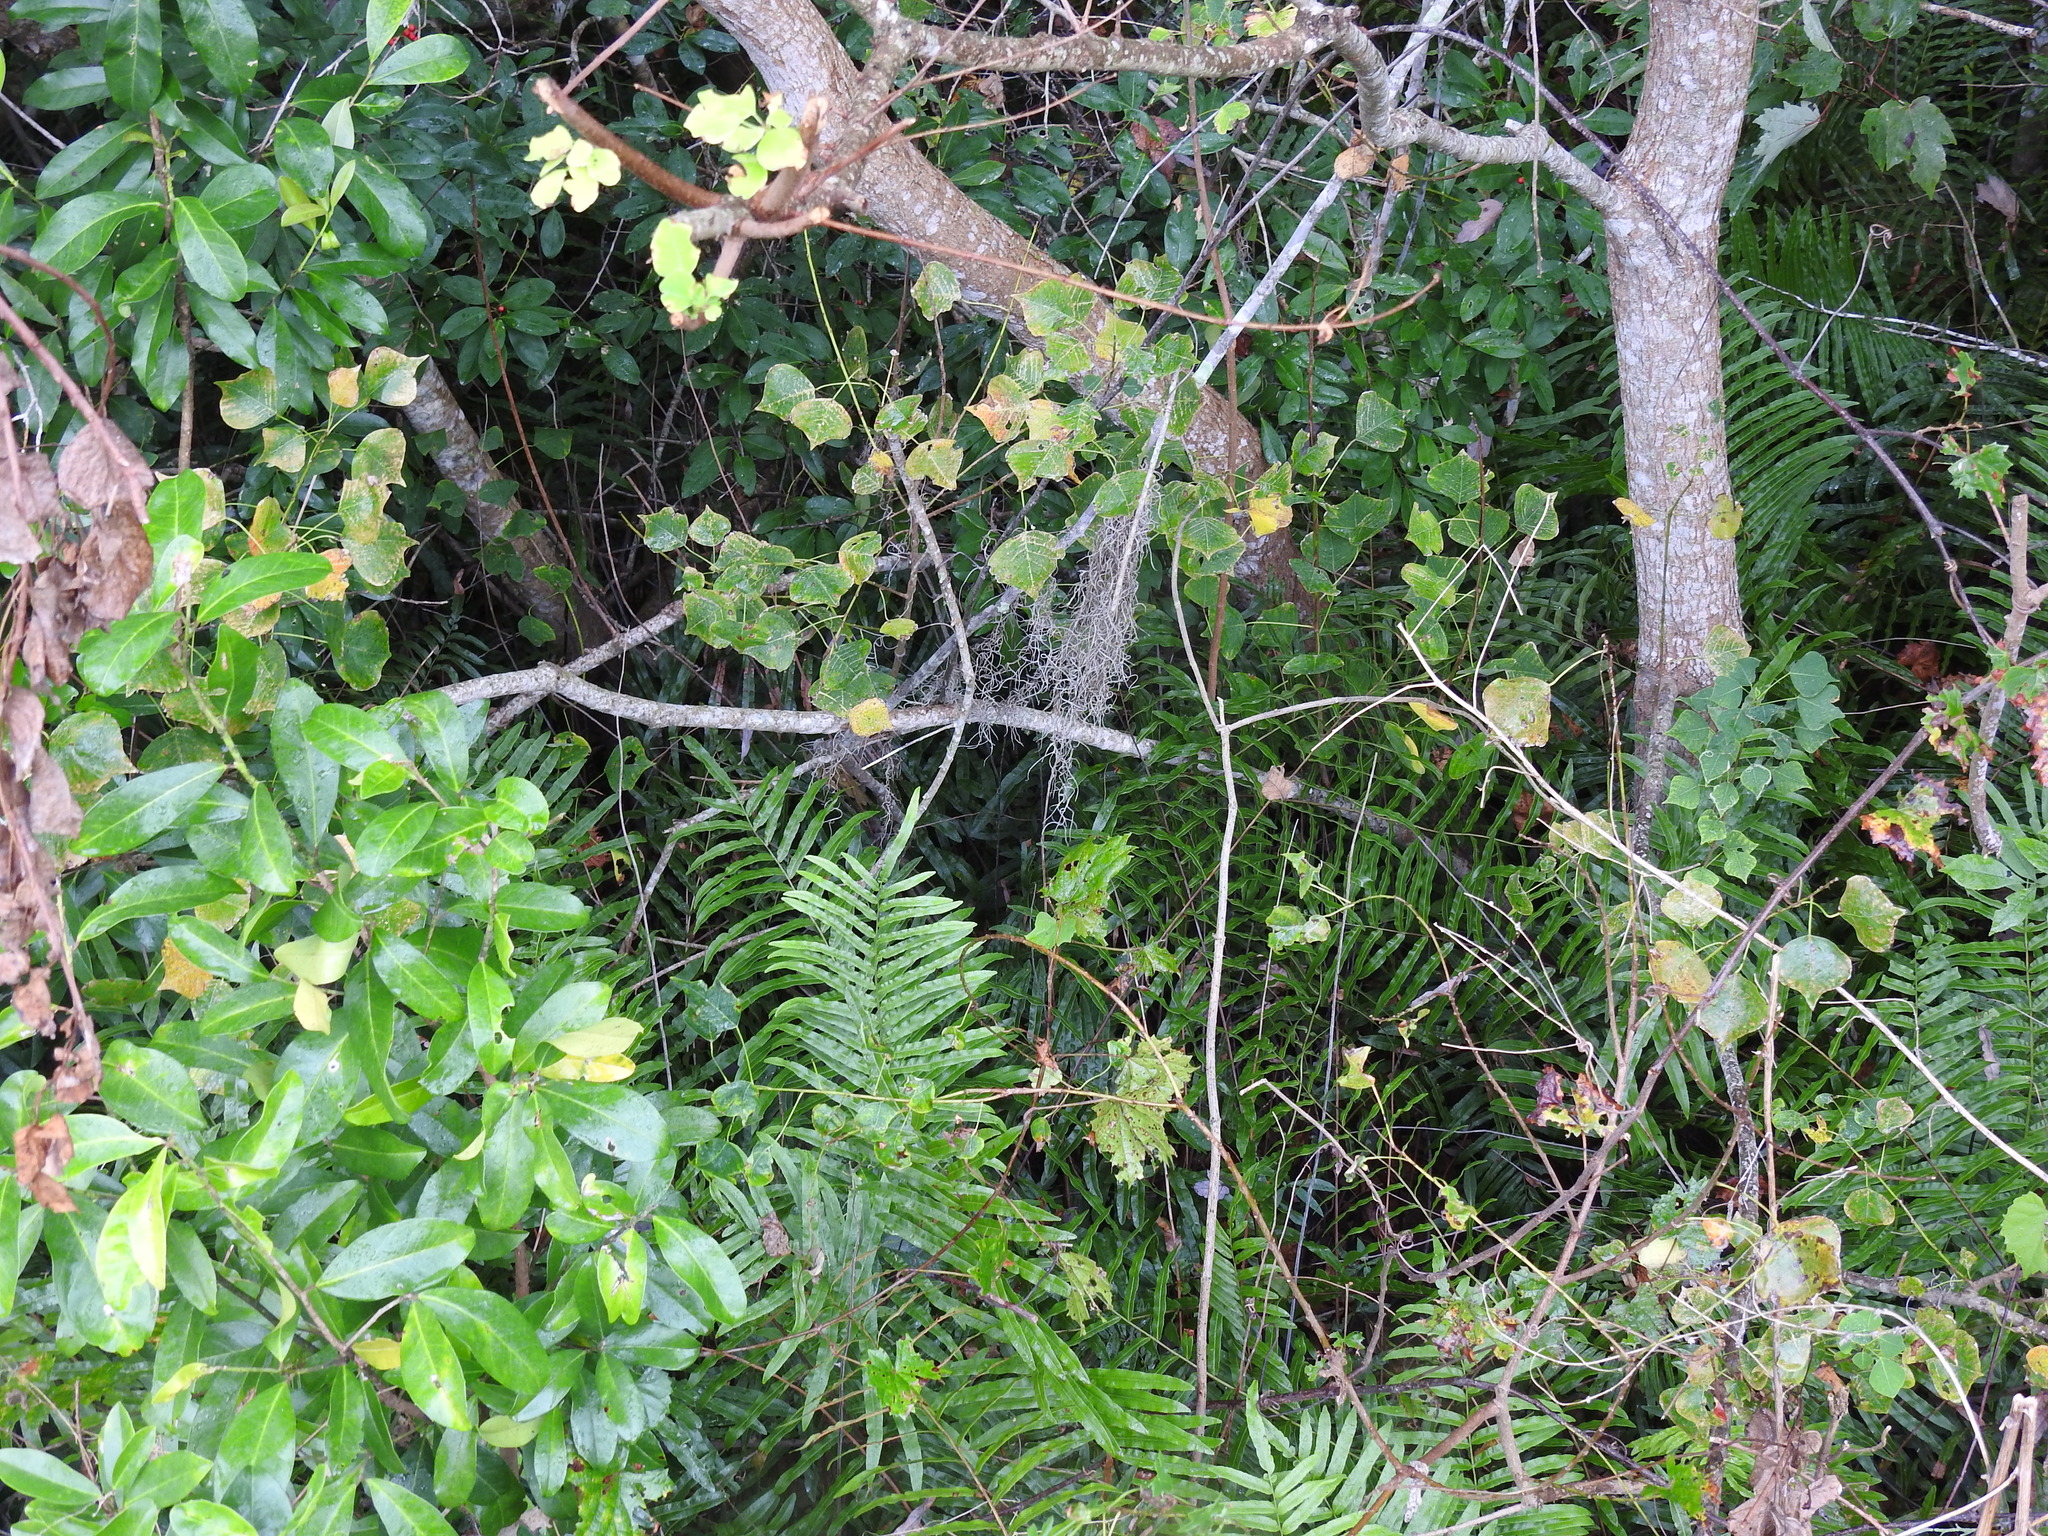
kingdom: Plantae
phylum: Tracheophyta
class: Polypodiopsida
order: Polypodiales
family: Blechnaceae
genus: Telmatoblechnum
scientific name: Telmatoblechnum serrulatum
